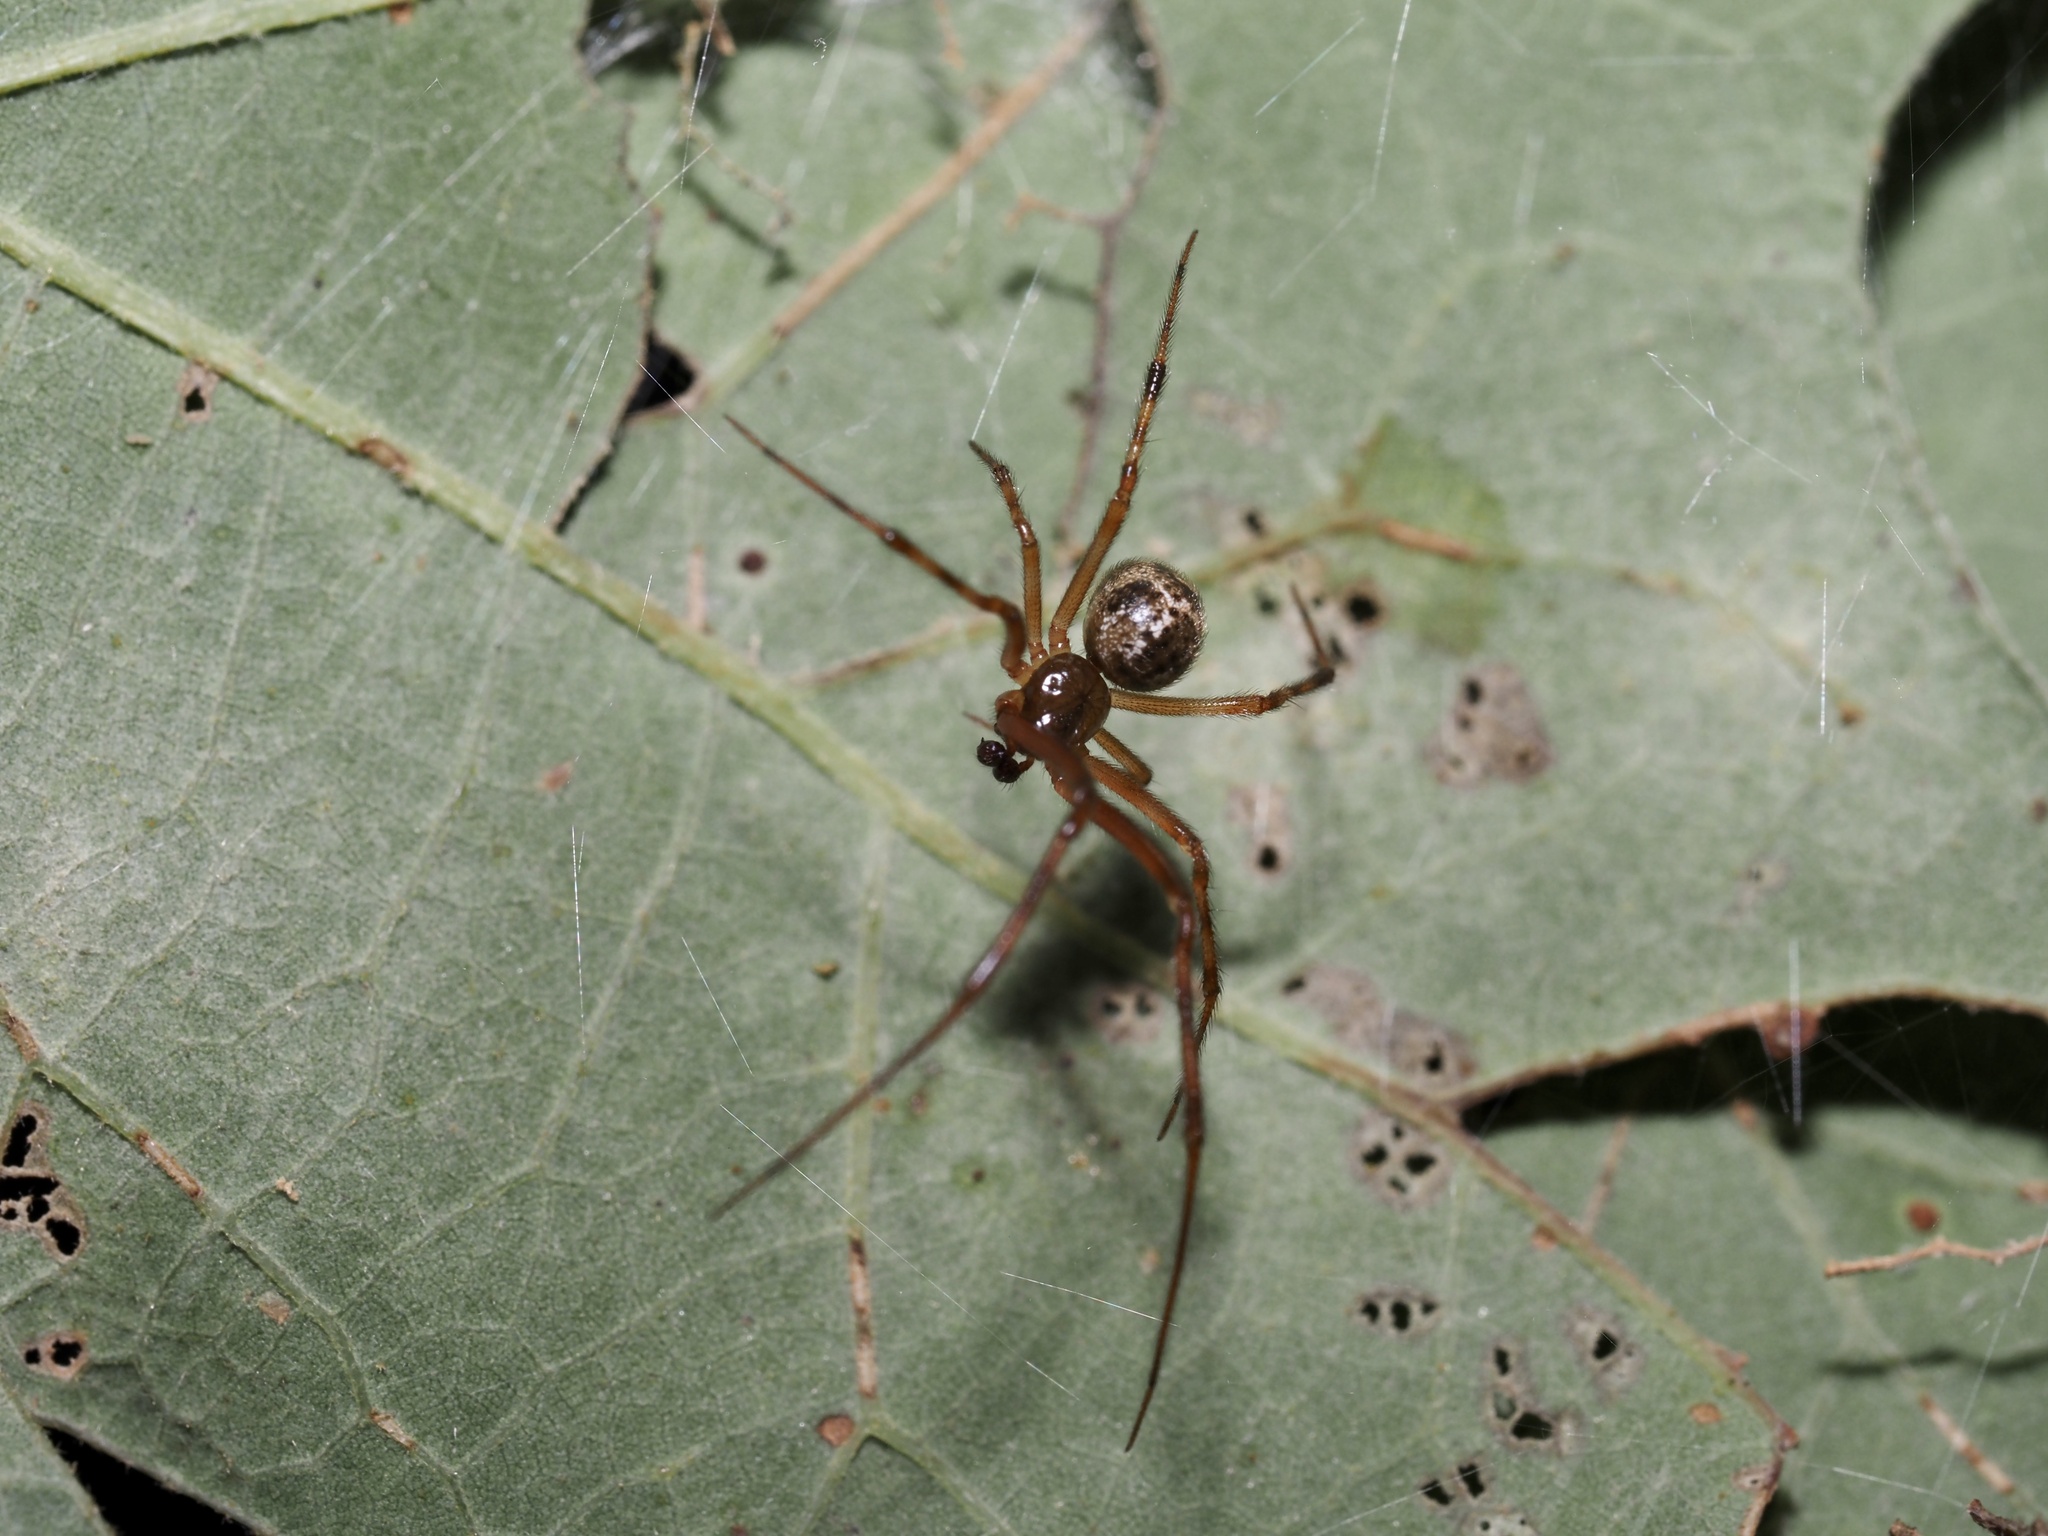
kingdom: Animalia
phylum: Arthropoda
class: Arachnida
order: Araneae
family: Theridiidae
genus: Parasteatoda
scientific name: Parasteatoda tepidariorum
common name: Common house spider
